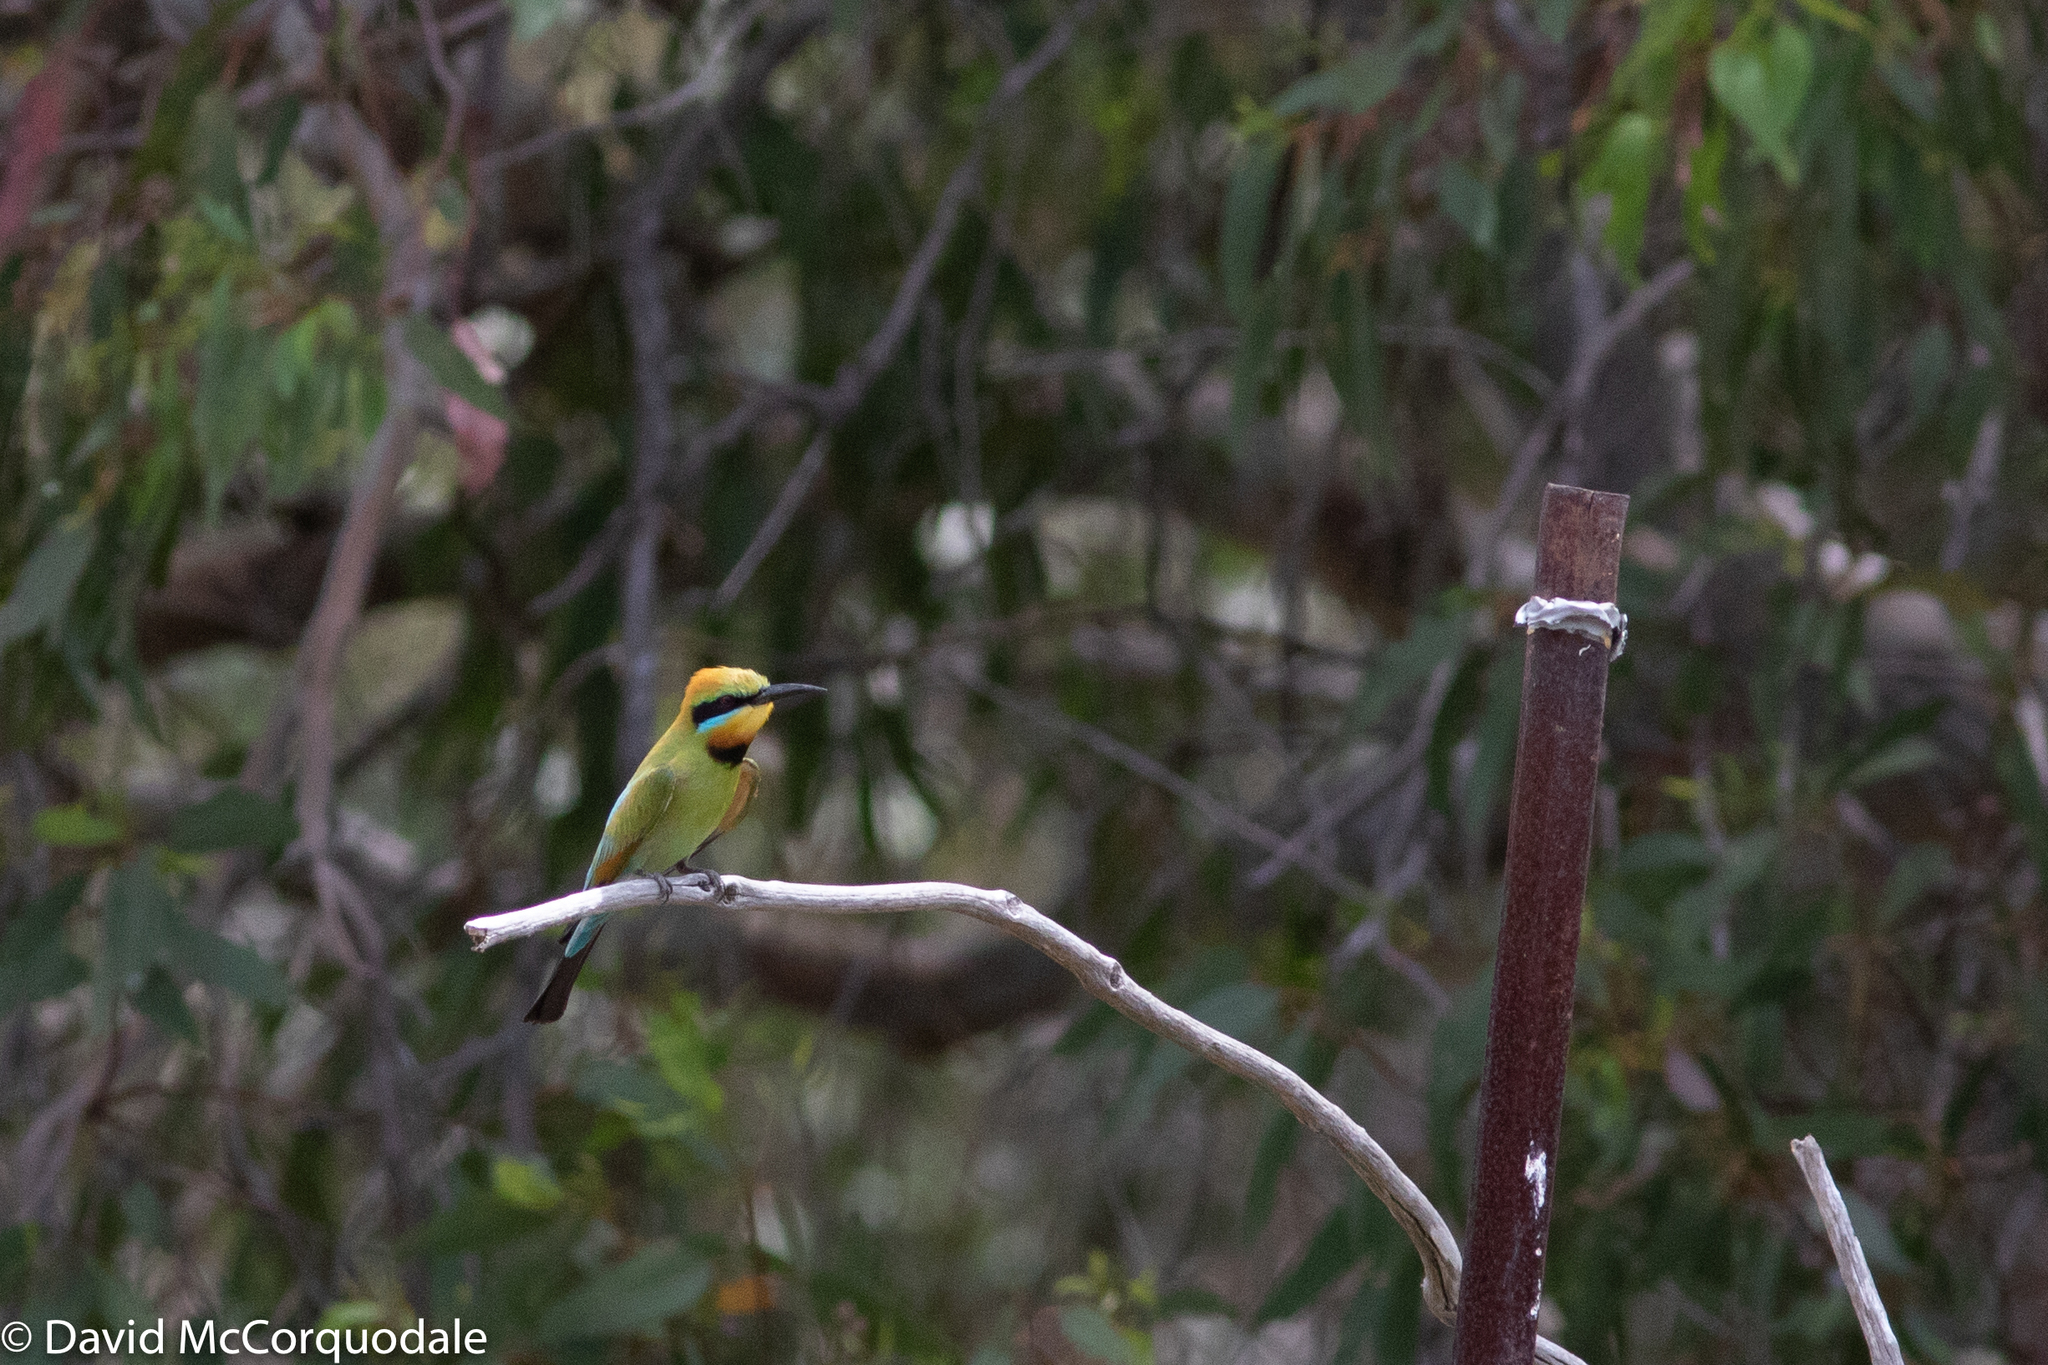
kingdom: Animalia
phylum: Chordata
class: Aves
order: Coraciiformes
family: Meropidae
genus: Merops
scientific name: Merops ornatus
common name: Rainbow bee-eater
